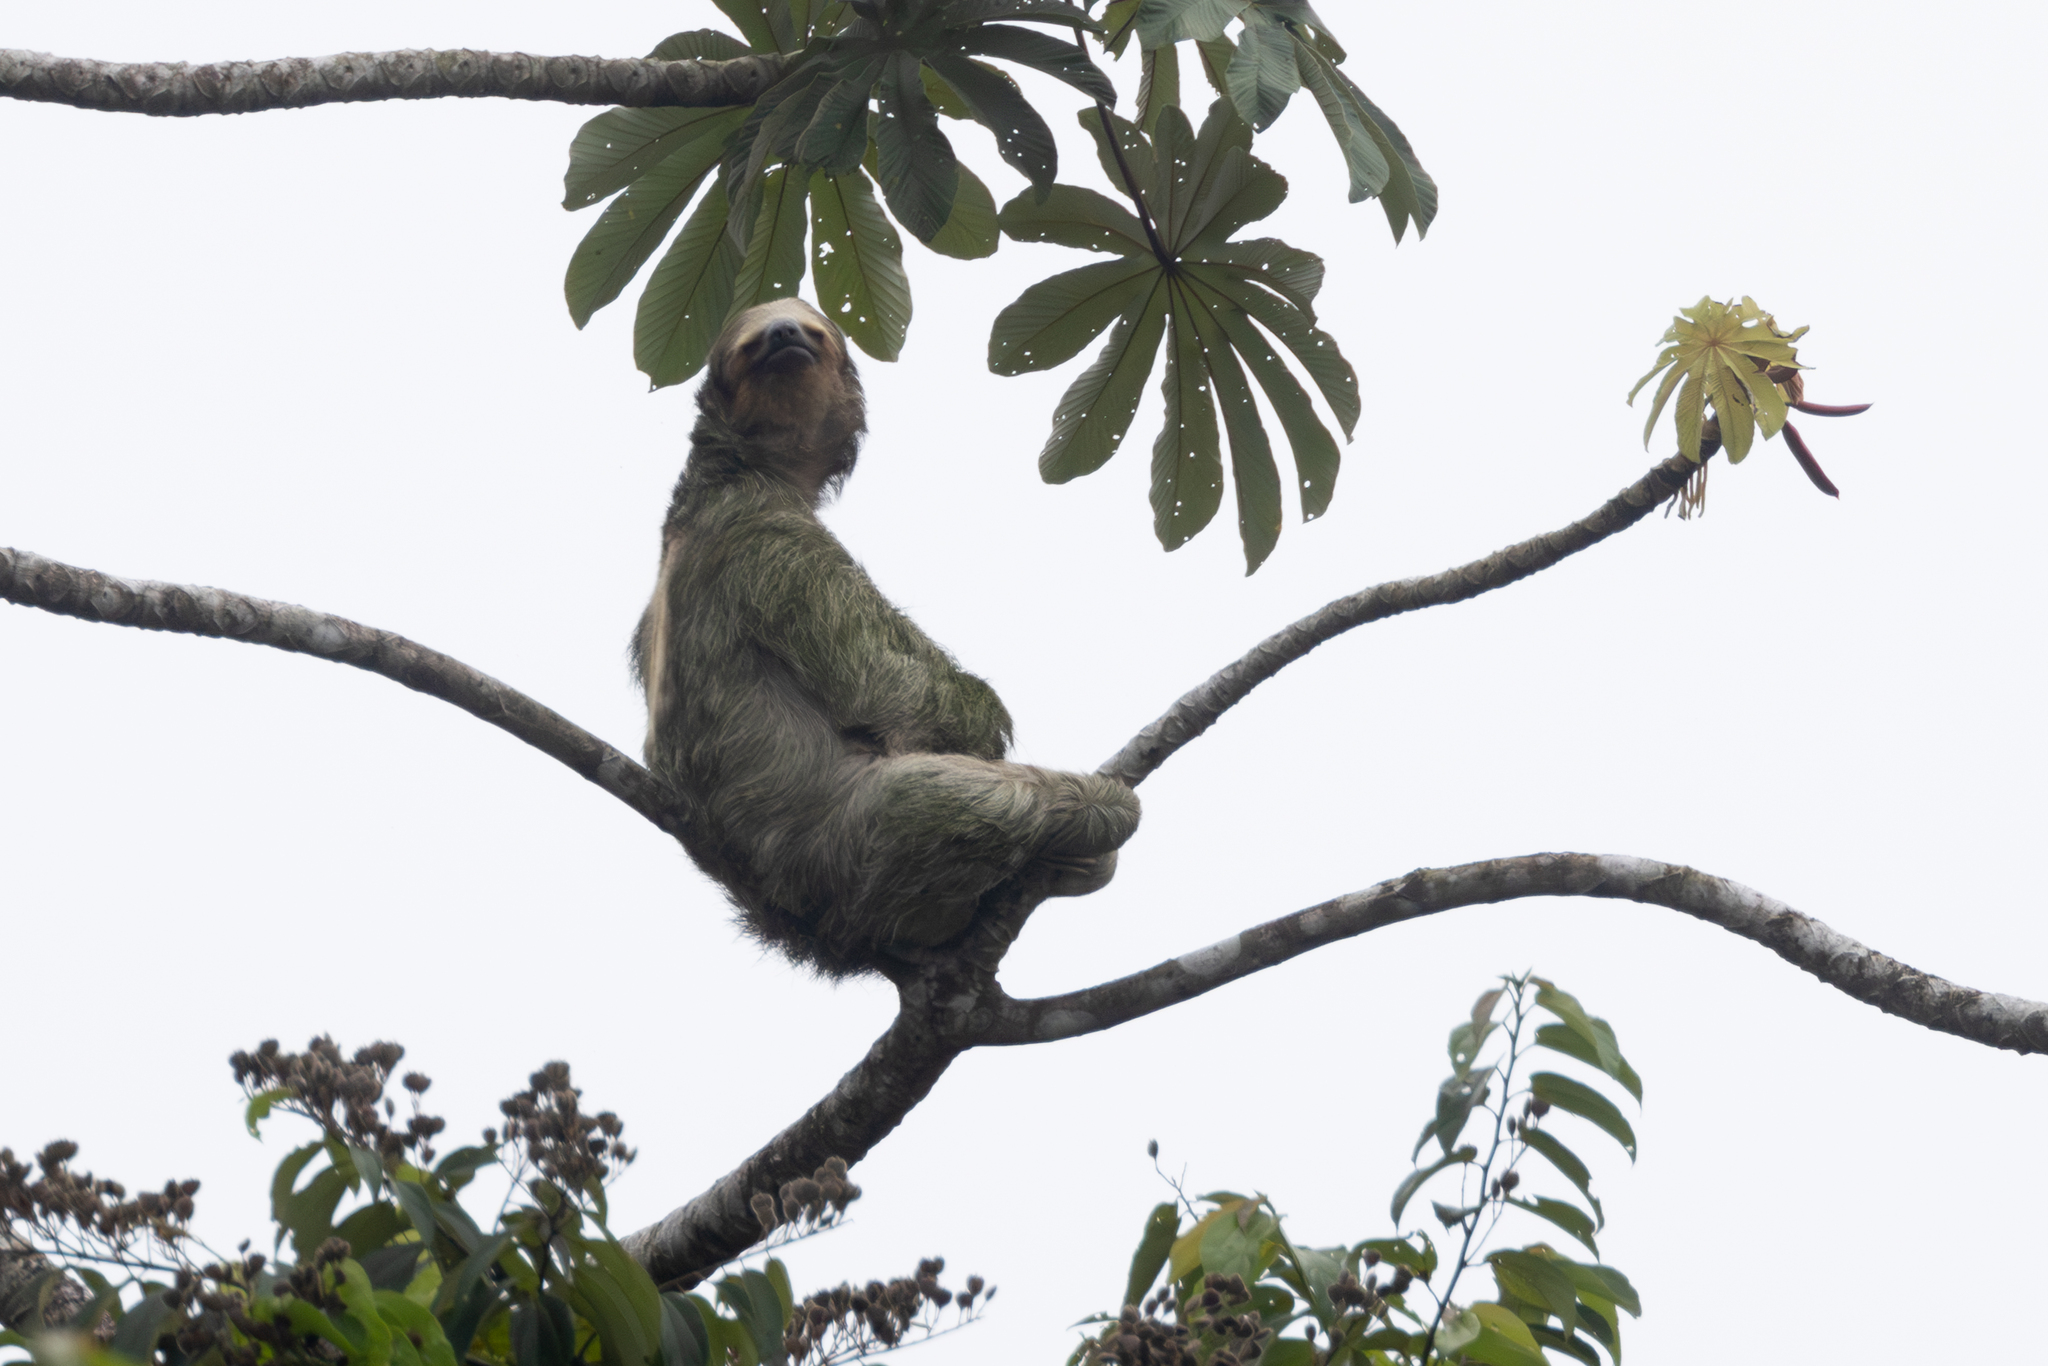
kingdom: Animalia
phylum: Chordata
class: Mammalia
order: Pilosa
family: Bradypodidae
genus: Bradypus
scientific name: Bradypus variegatus
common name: Brown-throated three-toed sloth
